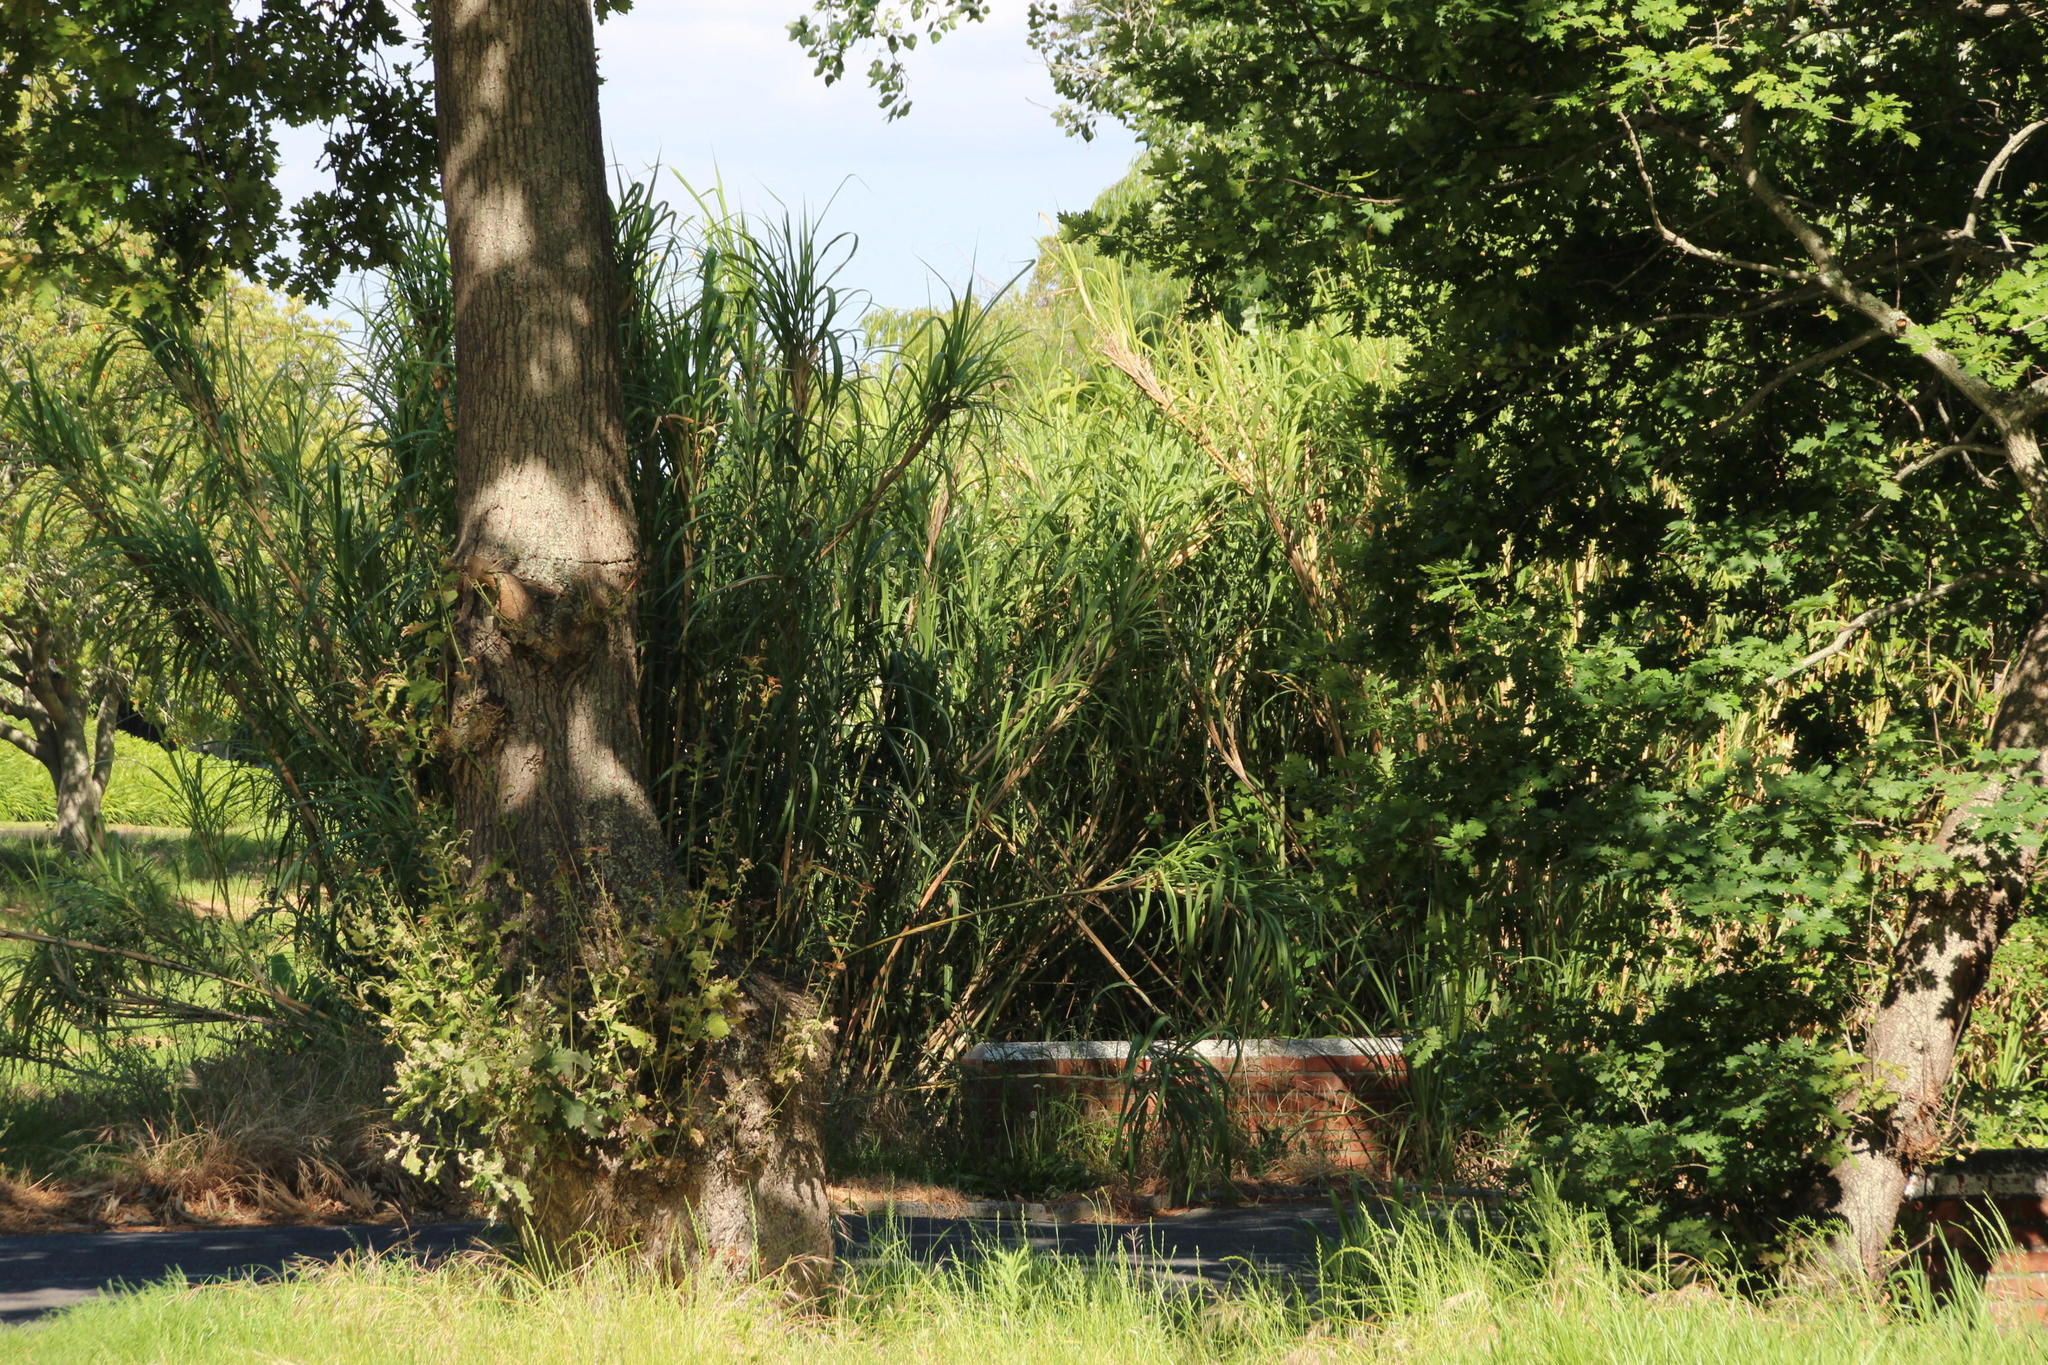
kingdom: Plantae
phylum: Tracheophyta
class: Liliopsida
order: Poales
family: Poaceae
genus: Cenchrus
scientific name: Cenchrus purpureus
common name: Elephant grass
